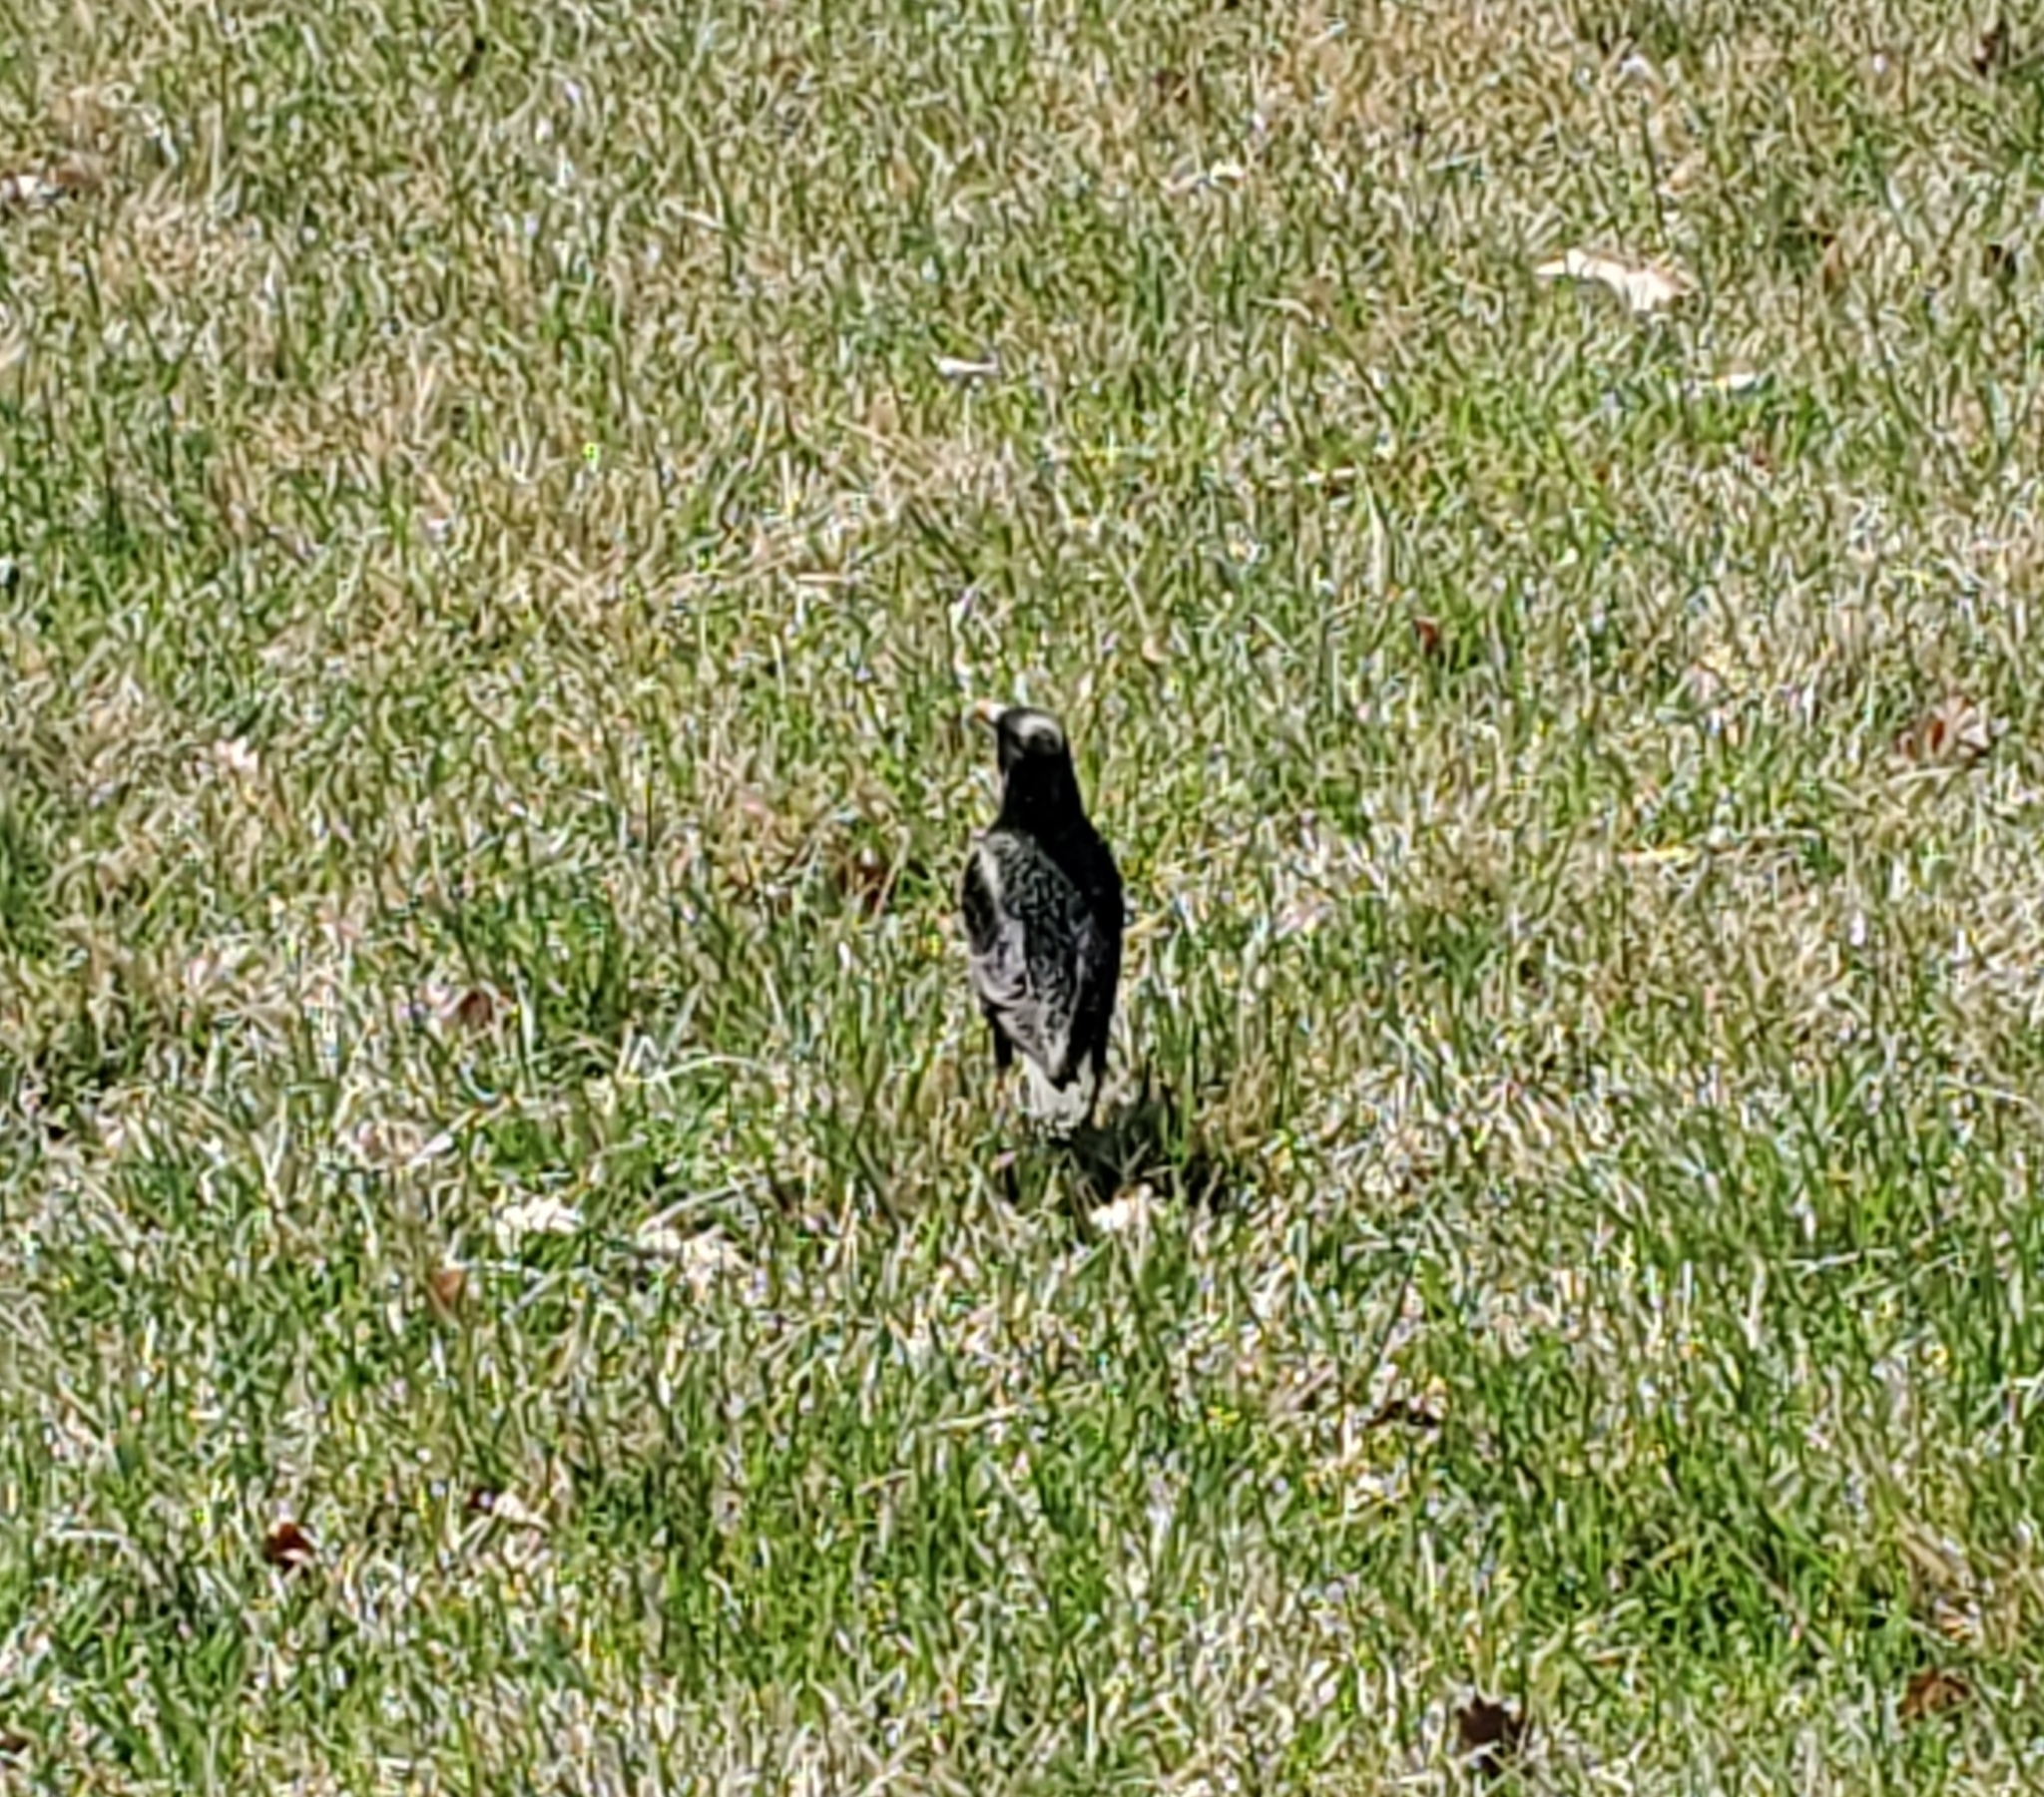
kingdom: Animalia
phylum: Chordata
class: Aves
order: Passeriformes
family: Sturnidae
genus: Sturnus
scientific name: Sturnus vulgaris
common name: Common starling
